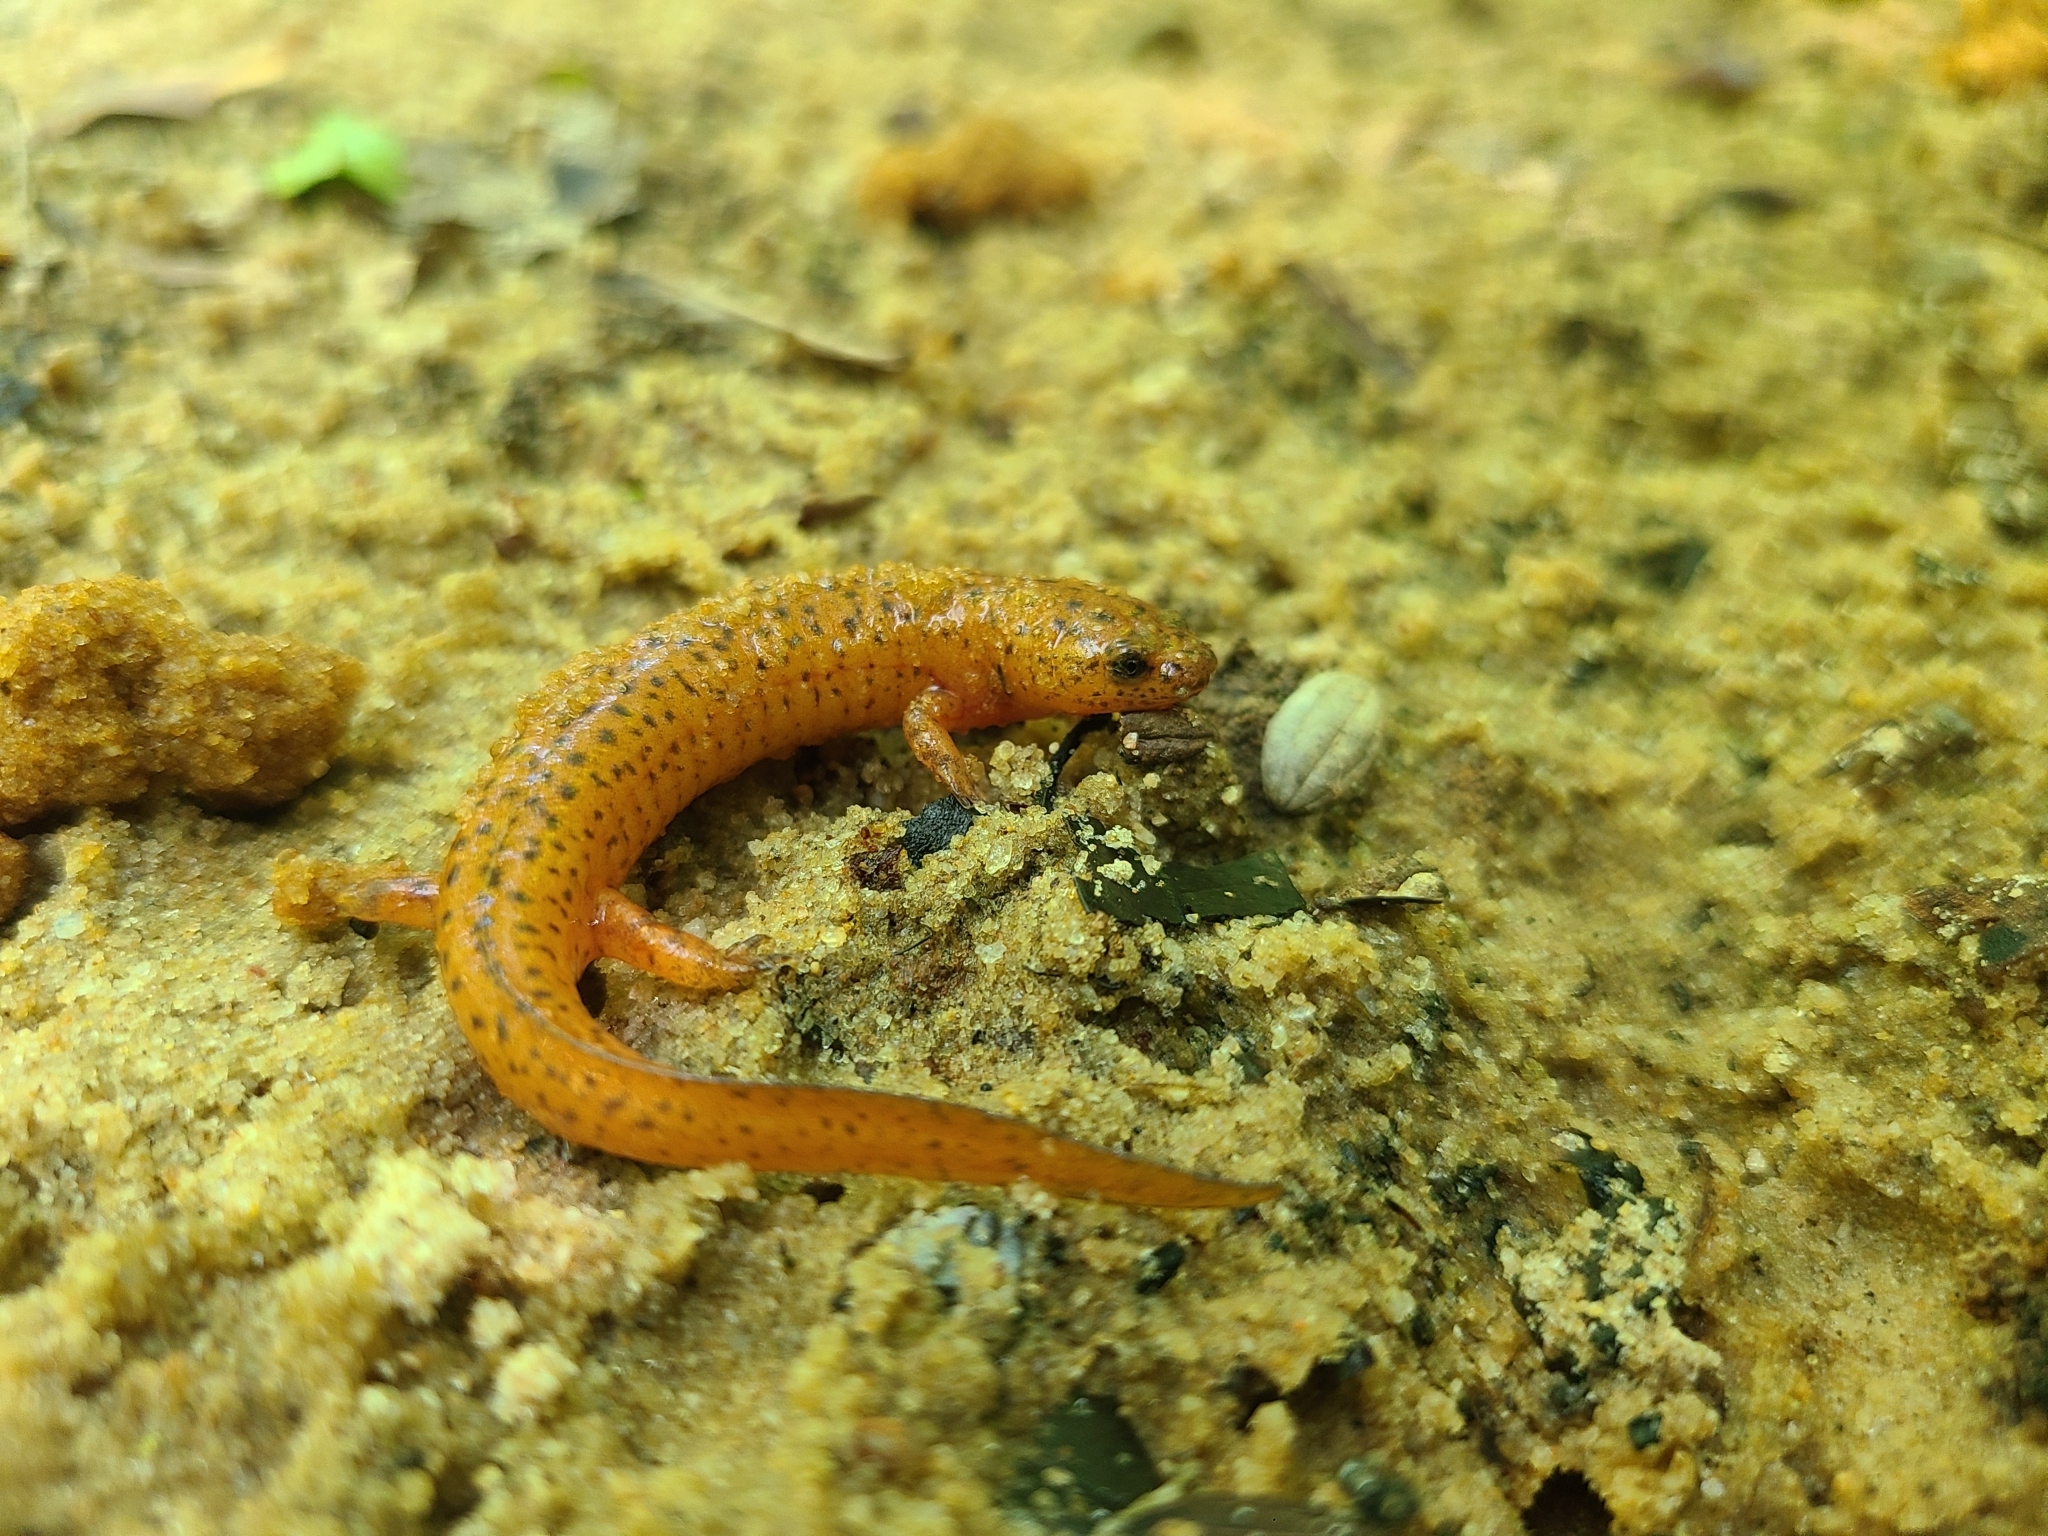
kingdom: Animalia
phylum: Chordata
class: Amphibia
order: Caudata
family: Plethodontidae
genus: Pseudotriton
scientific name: Pseudotriton ruber
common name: Red salamander
